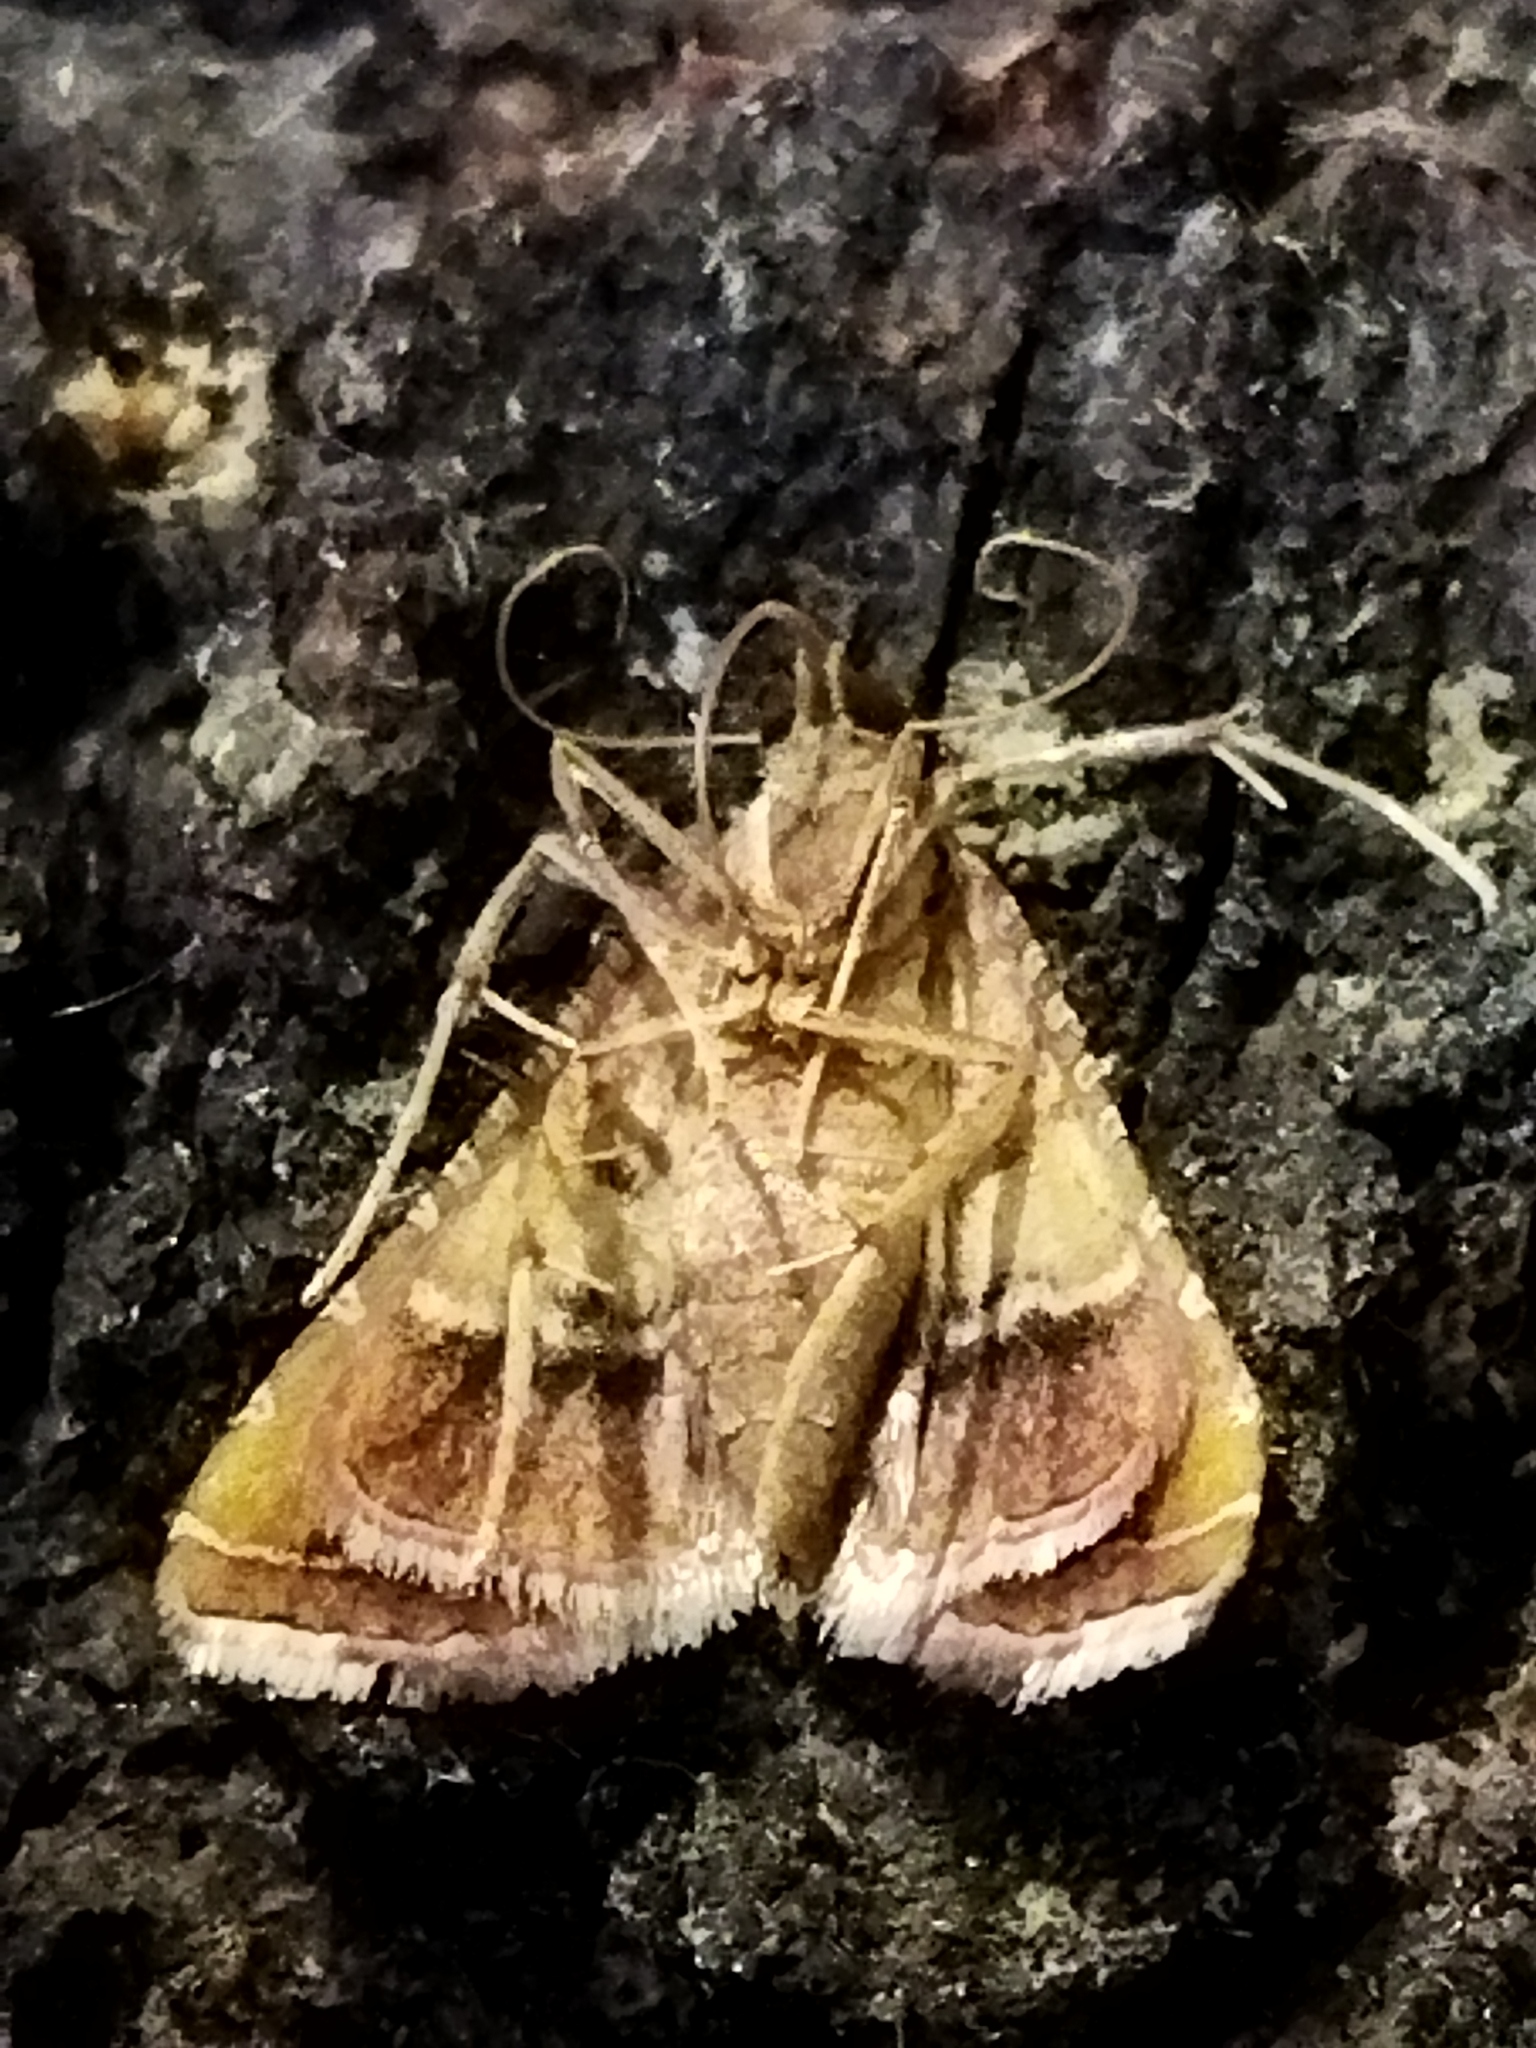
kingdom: Animalia
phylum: Arthropoda
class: Insecta
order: Lepidoptera
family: Noctuidae
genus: Helicoverpa
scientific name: Helicoverpa armigera
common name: Cotton bollworm
